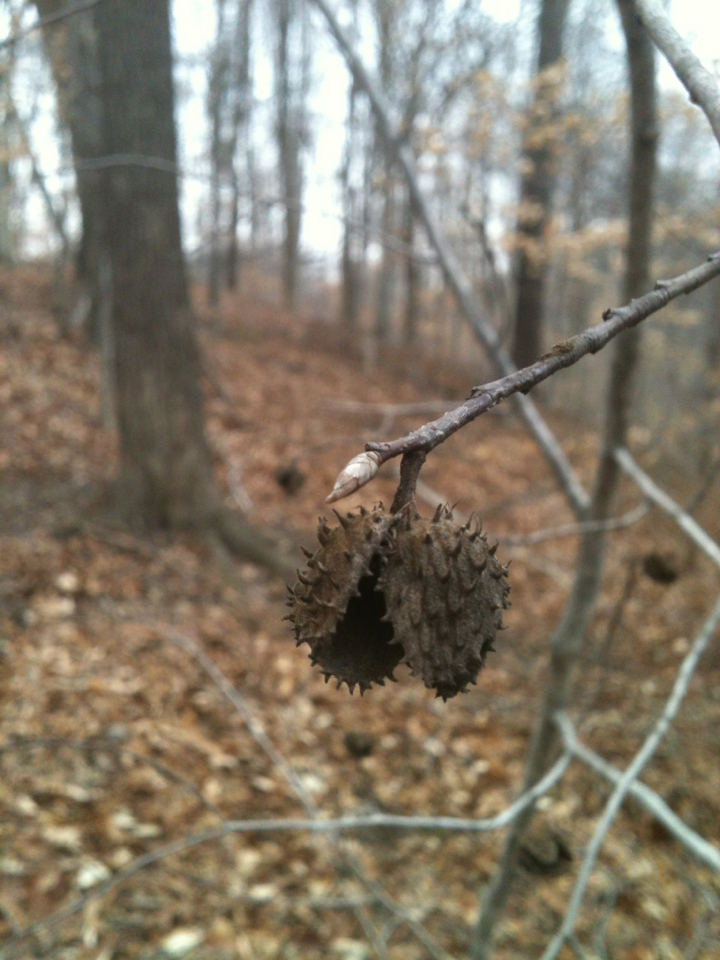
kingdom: Plantae
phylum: Tracheophyta
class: Magnoliopsida
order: Fagales
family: Fagaceae
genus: Fagus
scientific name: Fagus grandifolia
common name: American beech
